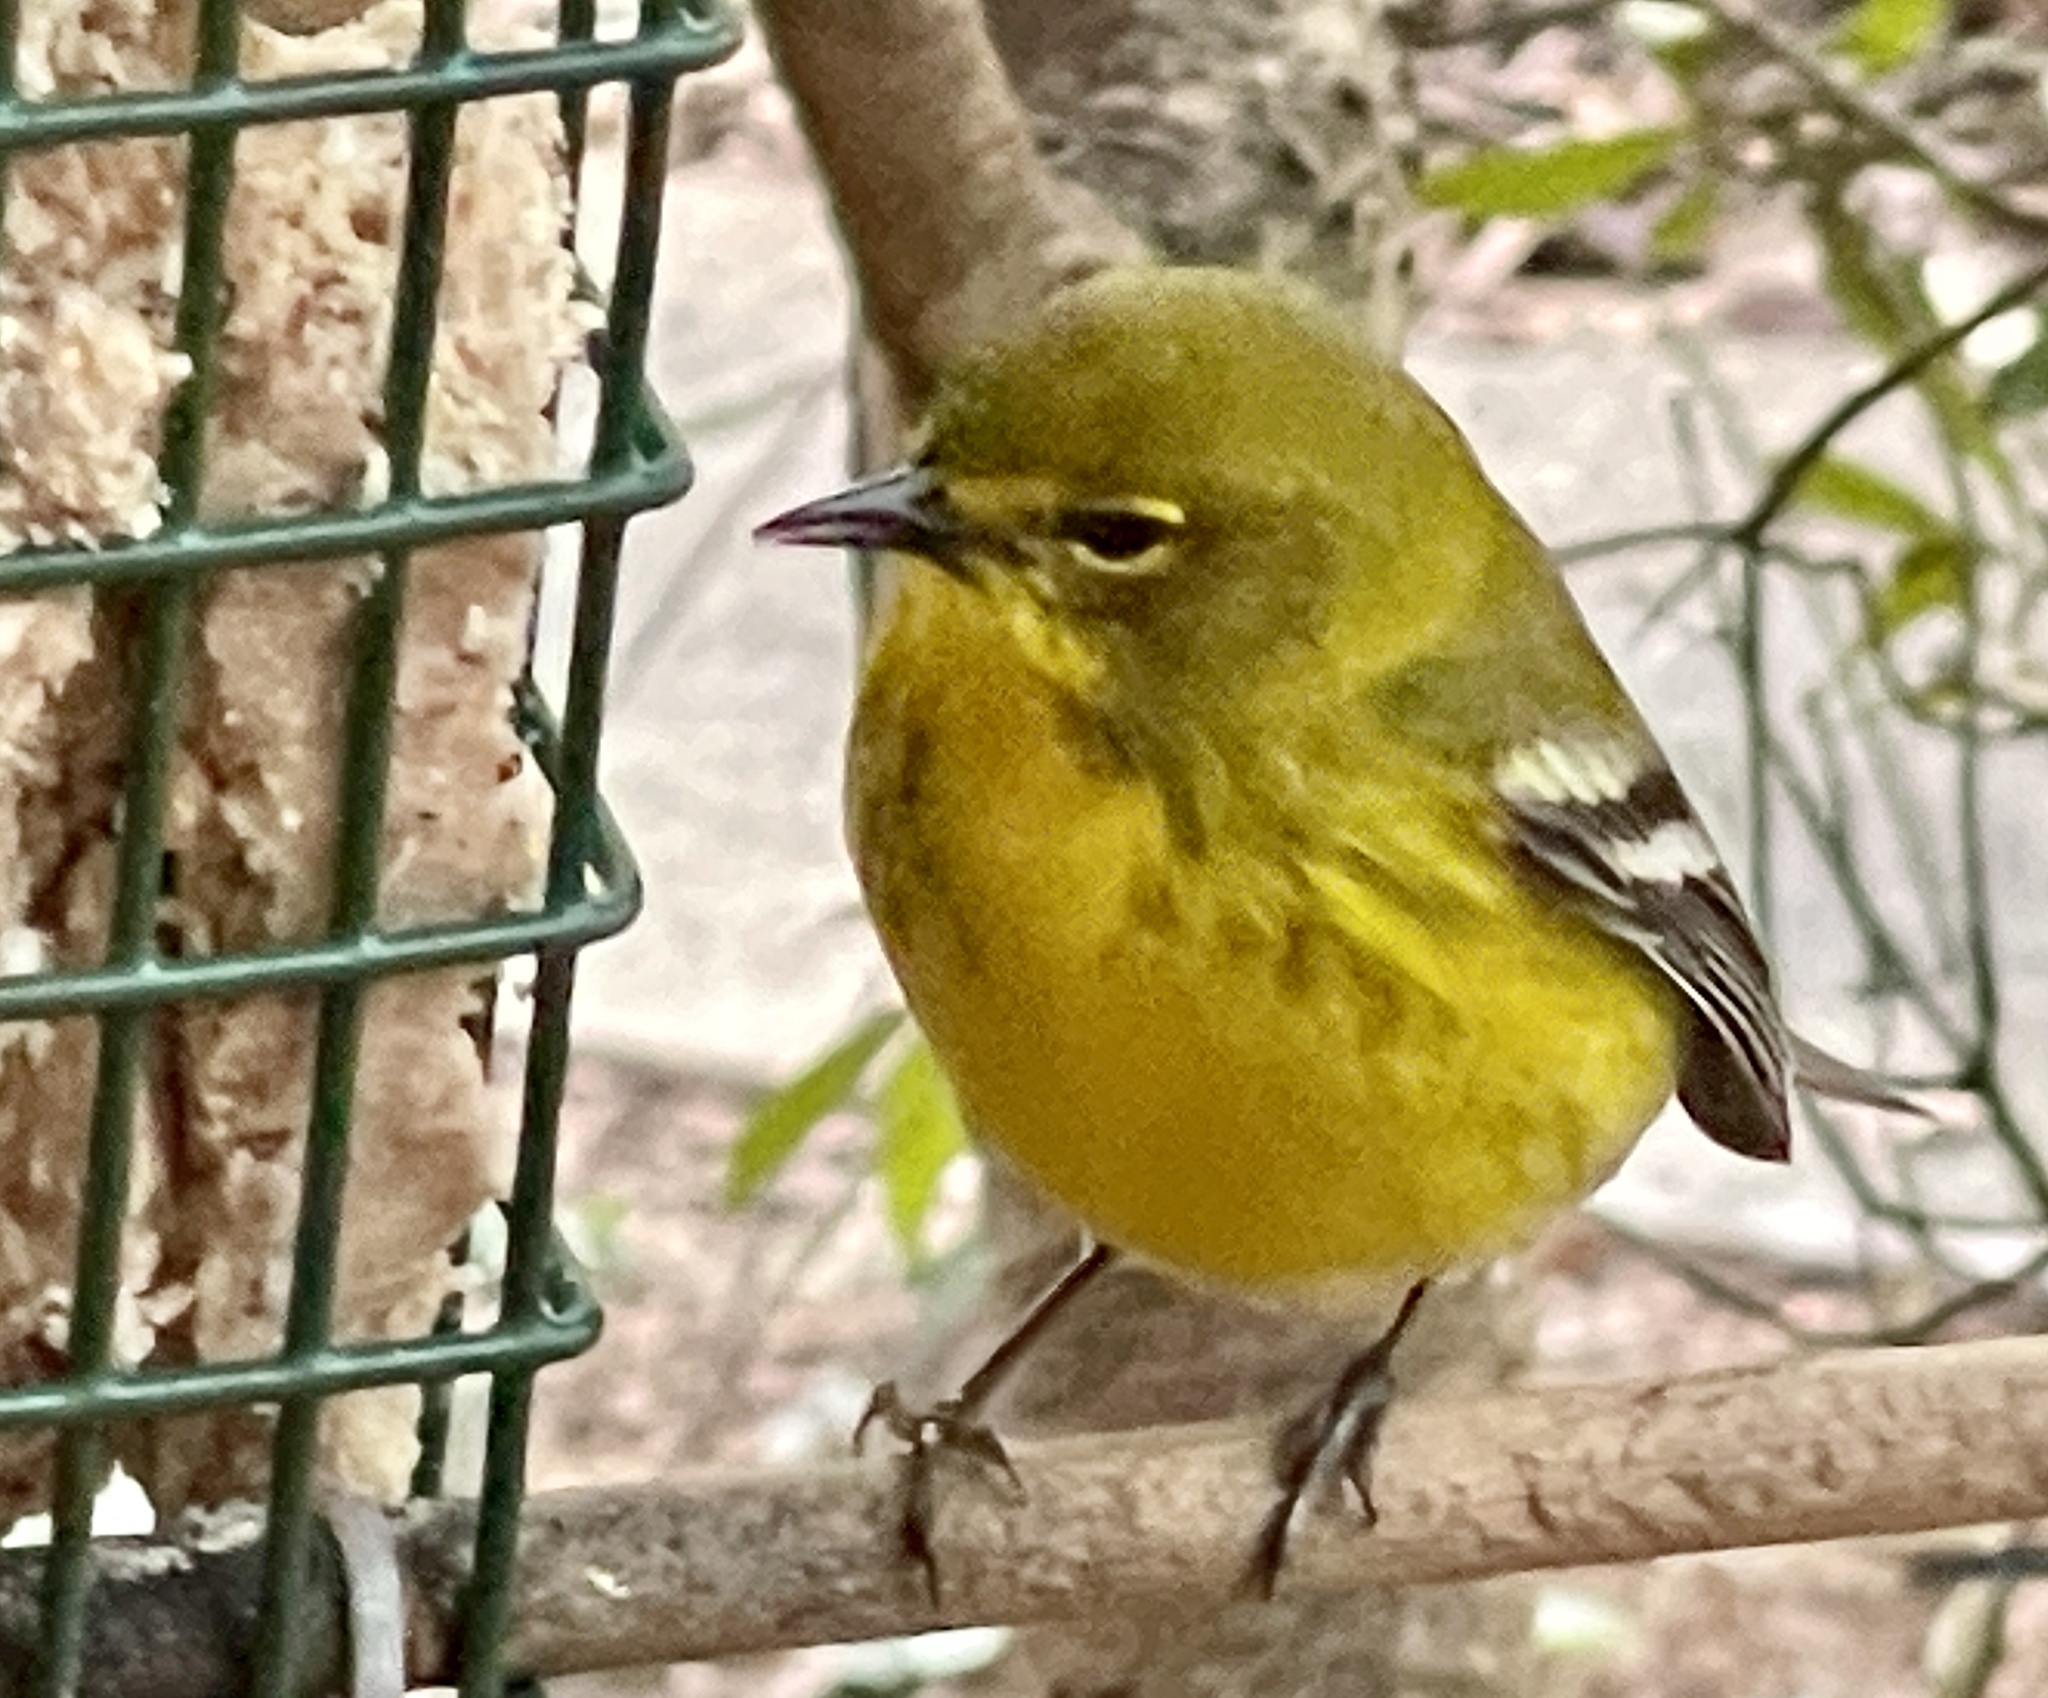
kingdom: Animalia
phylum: Chordata
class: Aves
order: Passeriformes
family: Parulidae
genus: Setophaga
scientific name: Setophaga pinus
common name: Pine warbler
